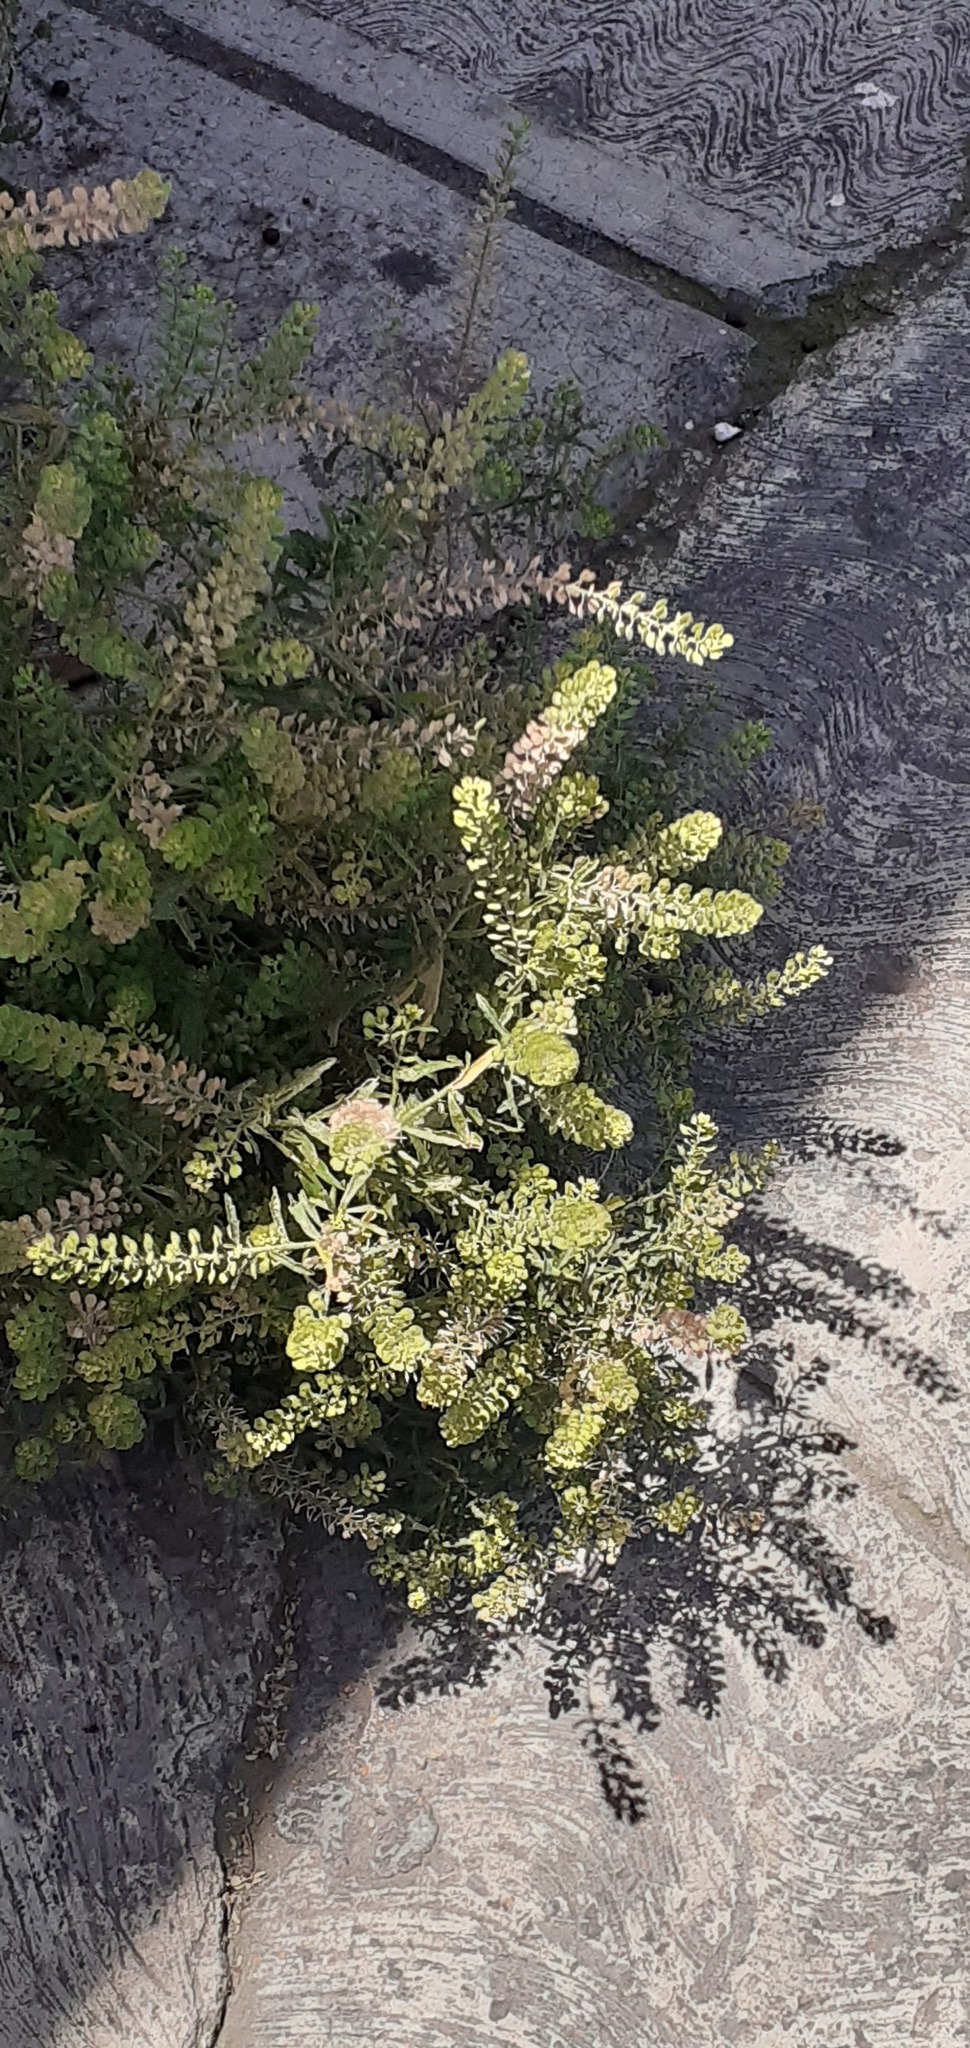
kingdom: Plantae
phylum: Tracheophyta
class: Magnoliopsida
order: Brassicales
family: Brassicaceae
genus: Lepidium
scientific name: Lepidium virginicum
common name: Least pepperwort
